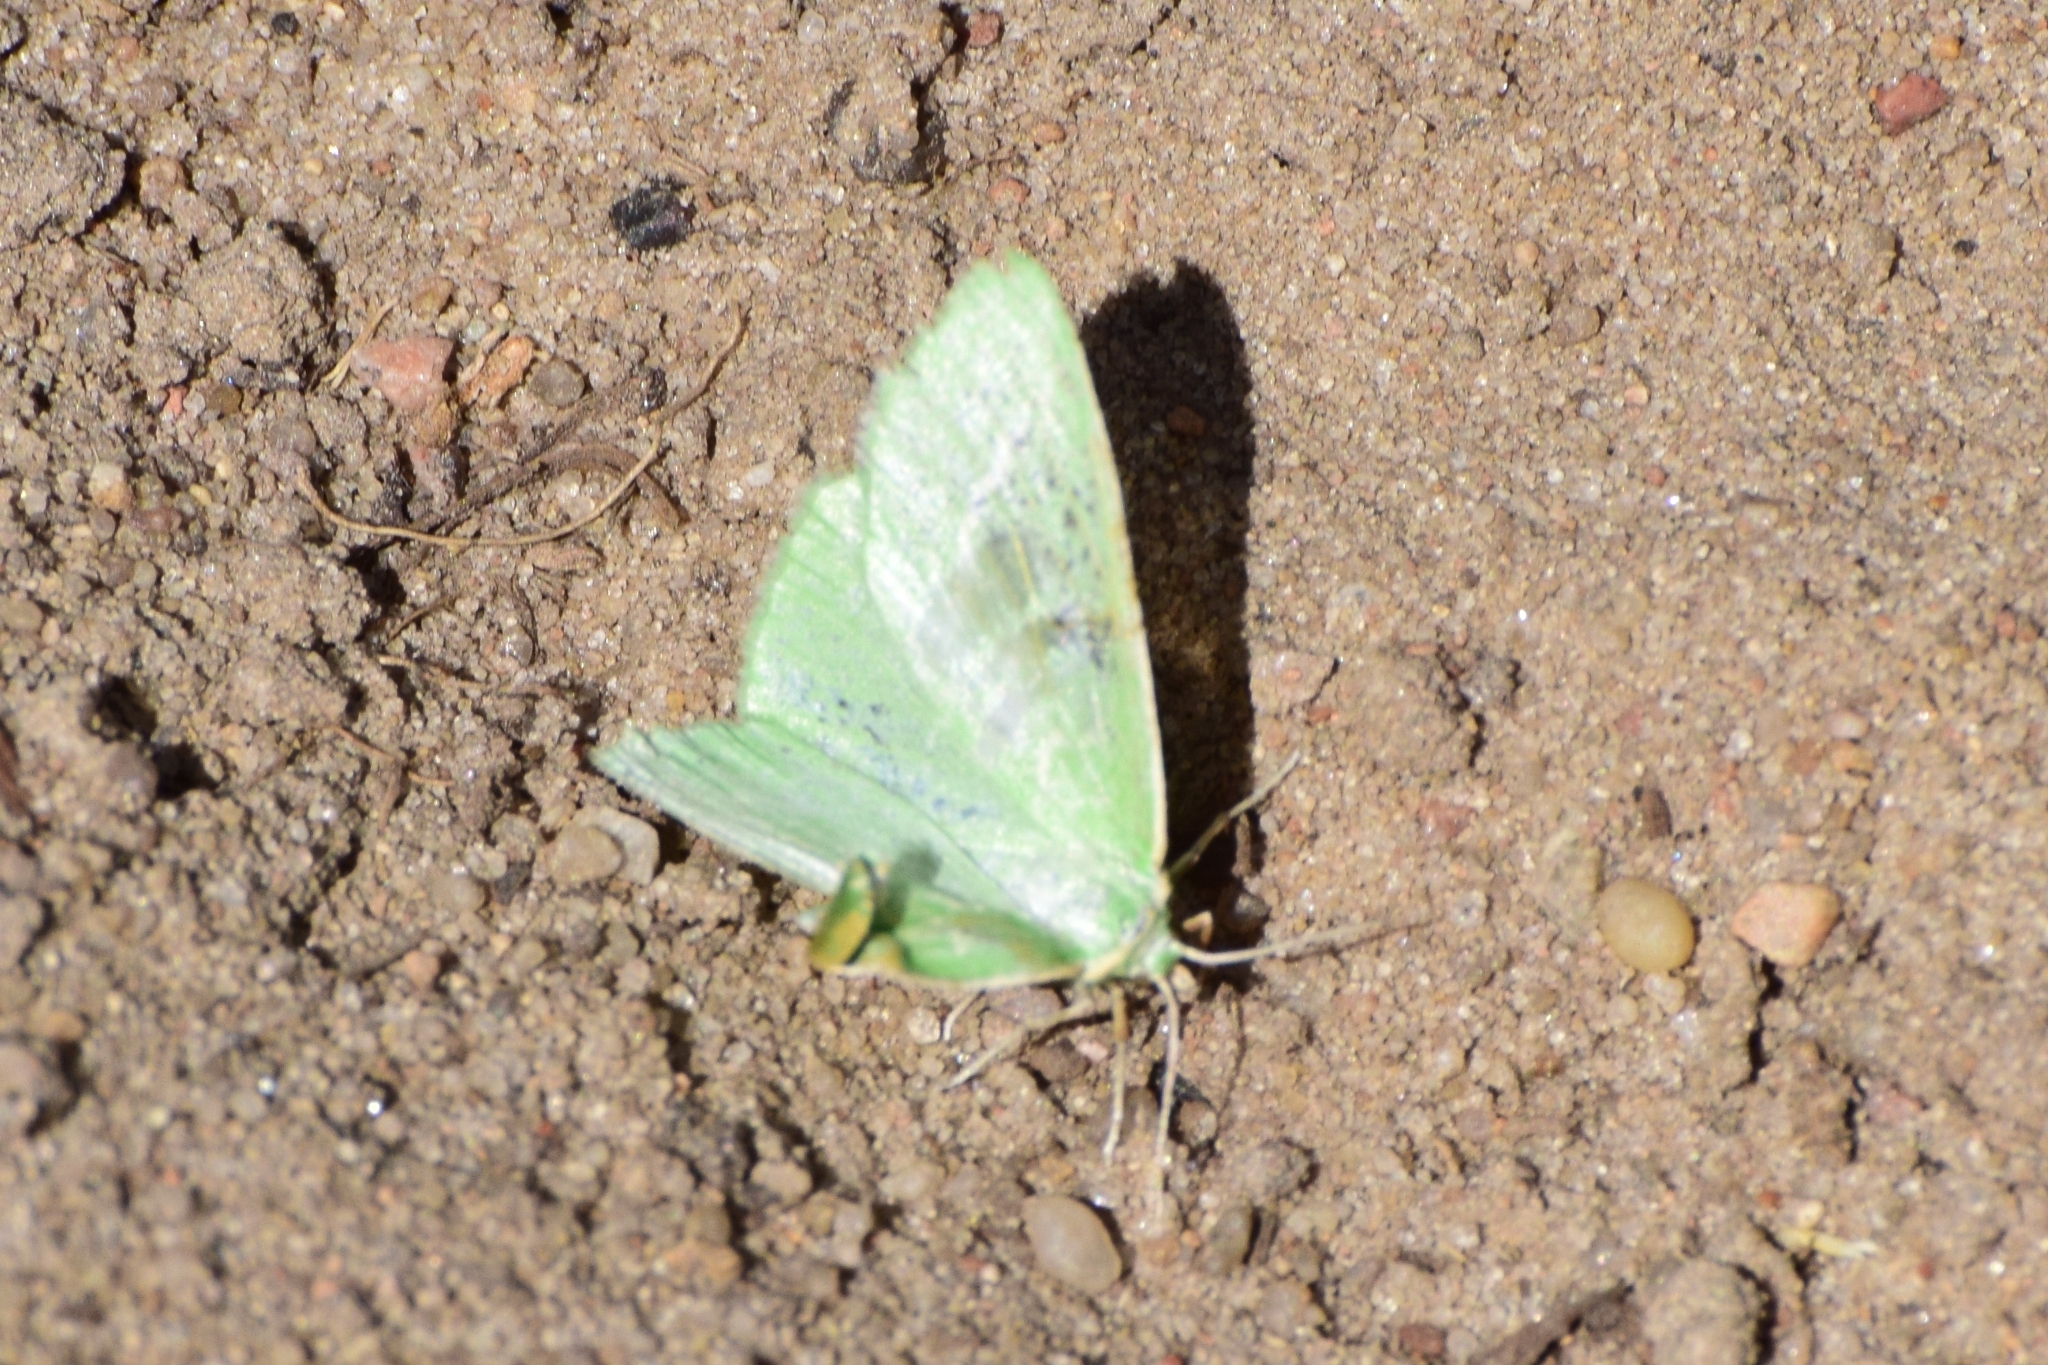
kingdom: Animalia
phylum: Arthropoda
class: Insecta
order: Lepidoptera
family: Geometridae
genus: Thetidia
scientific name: Thetidia smaragdaria
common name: Essex emerald
